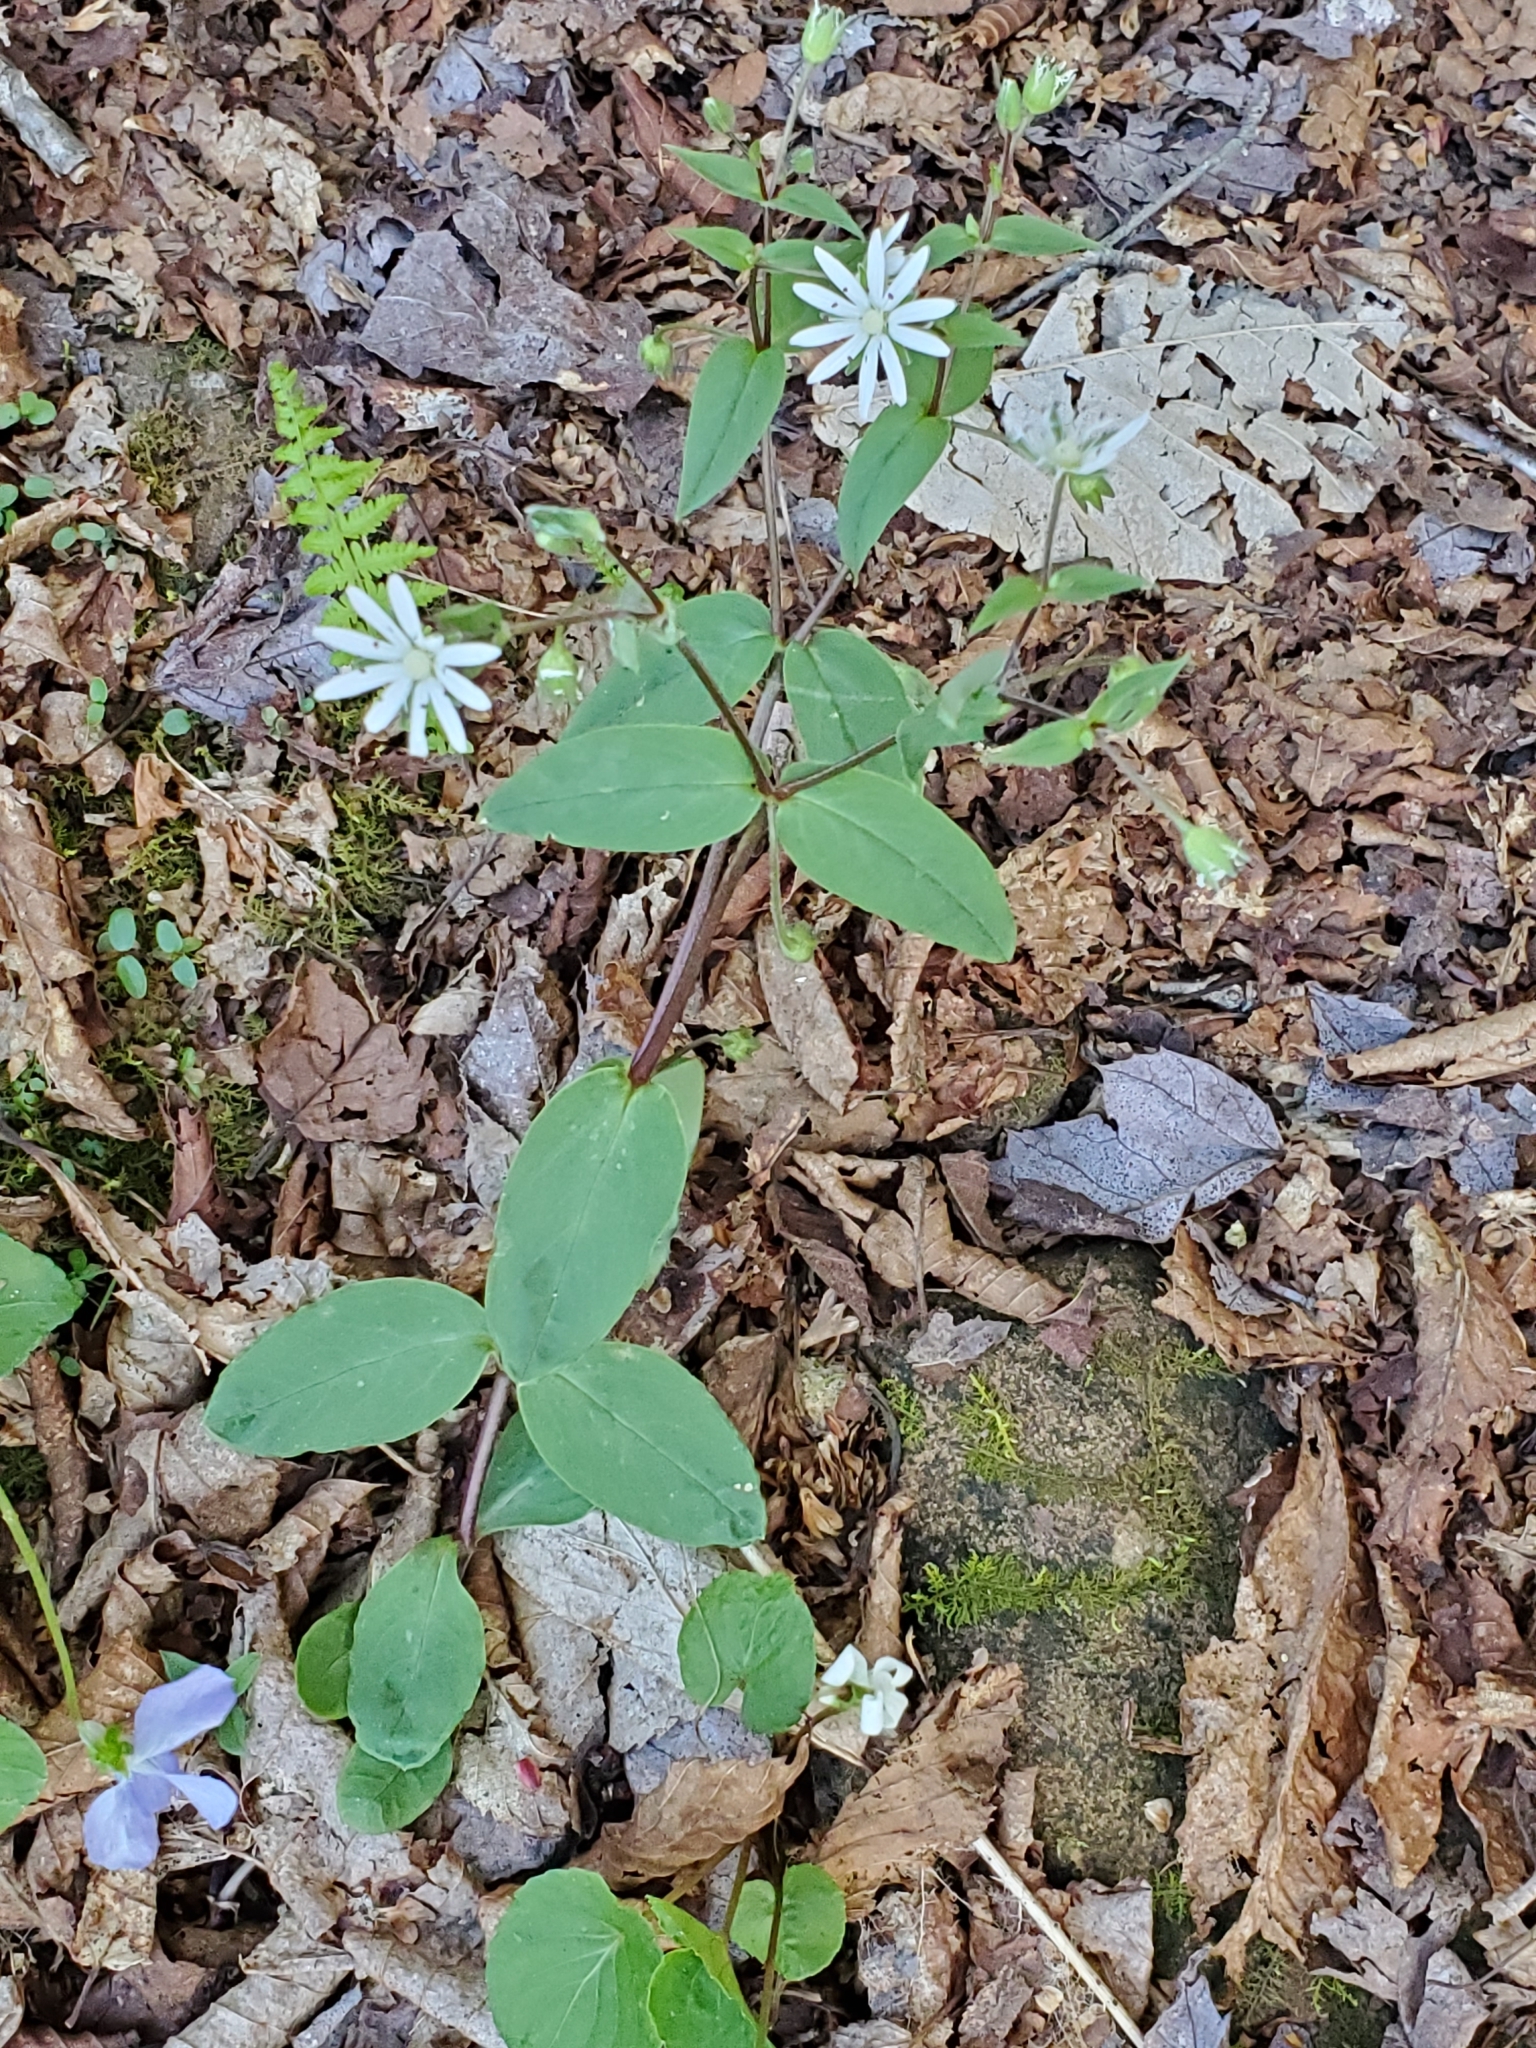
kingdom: Plantae
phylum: Tracheophyta
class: Magnoliopsida
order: Caryophyllales
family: Caryophyllaceae
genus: Stellaria
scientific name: Stellaria pubera
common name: Star chickweed
